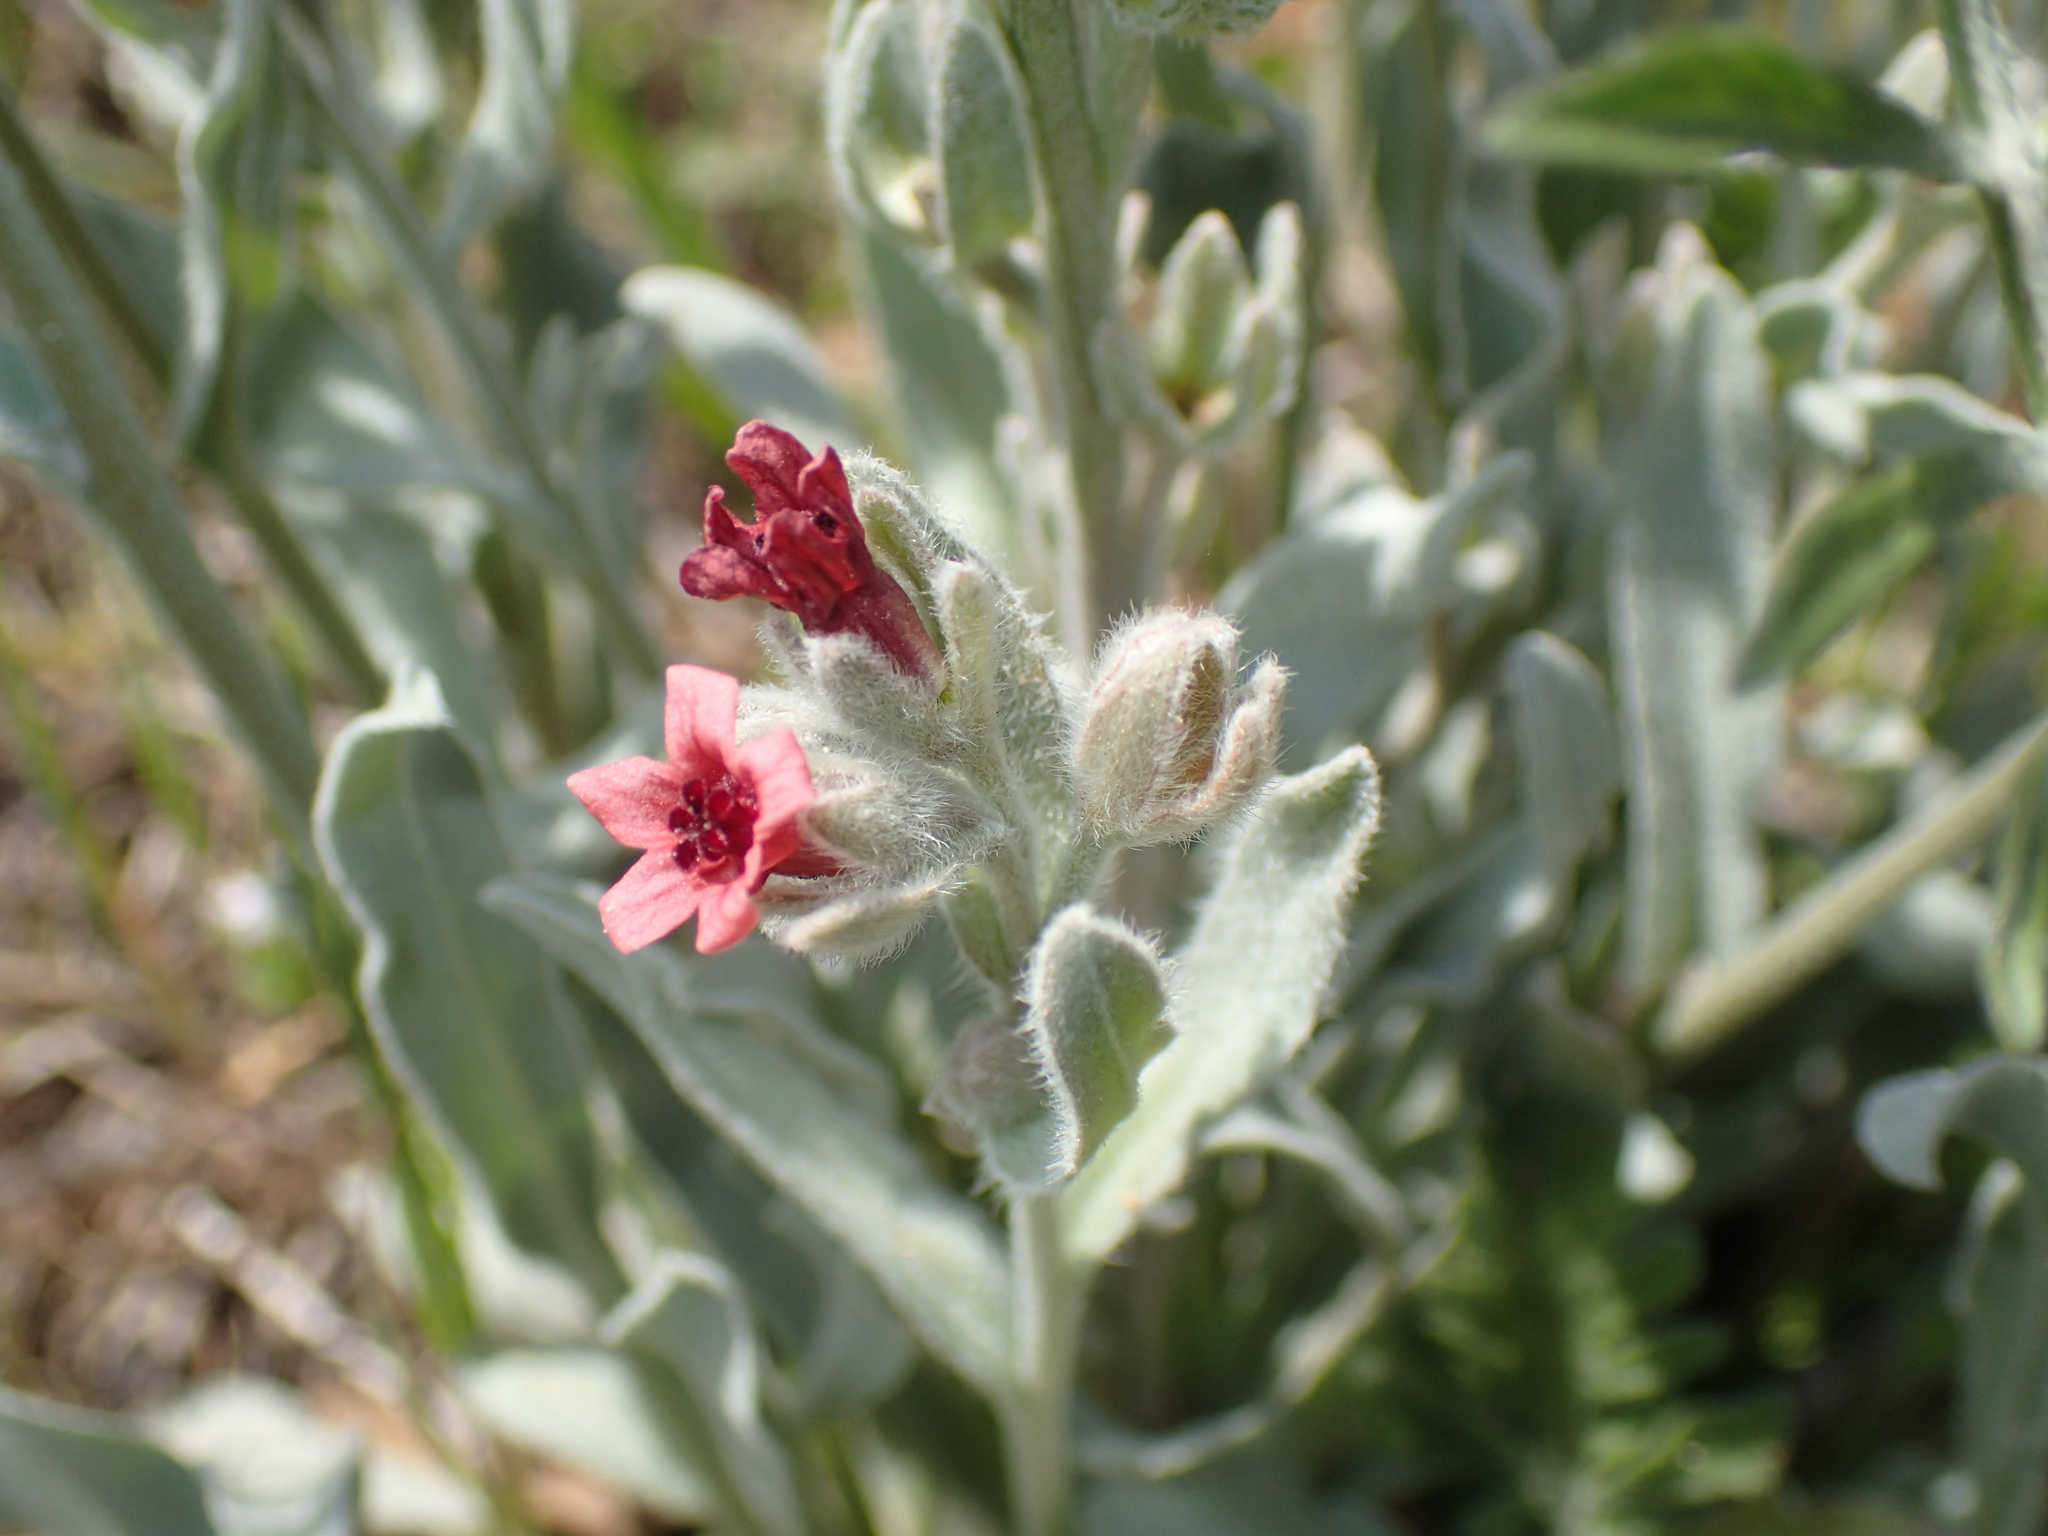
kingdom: Plantae
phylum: Tracheophyta
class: Magnoliopsida
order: Boraginales
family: Boraginaceae
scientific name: Boraginaceae
